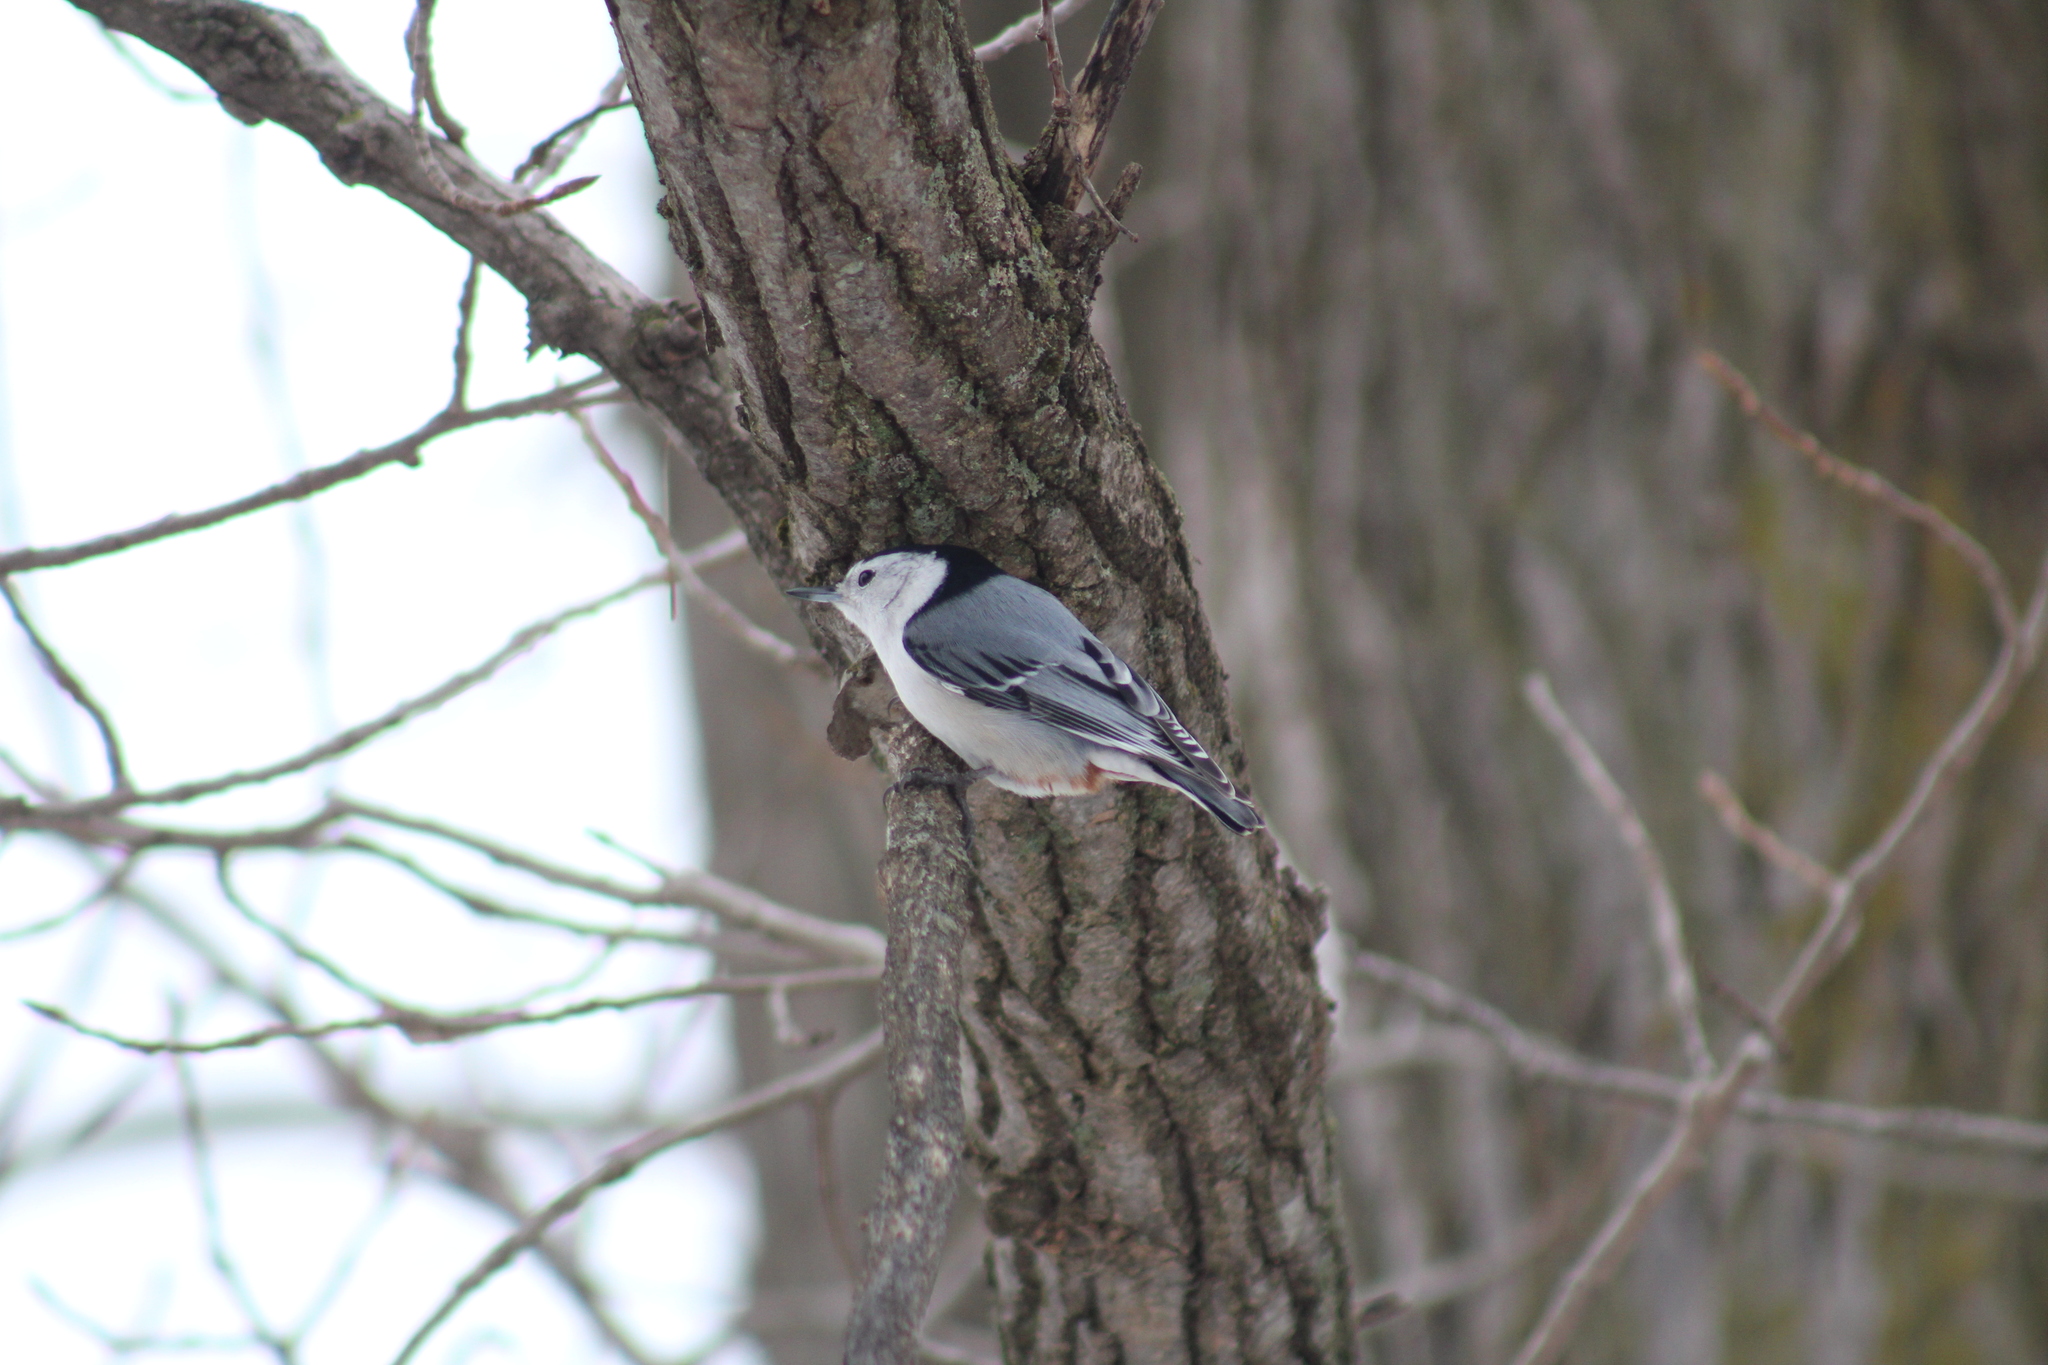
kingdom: Animalia
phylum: Chordata
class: Aves
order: Passeriformes
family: Sittidae
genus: Sitta
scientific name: Sitta carolinensis
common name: White-breasted nuthatch
